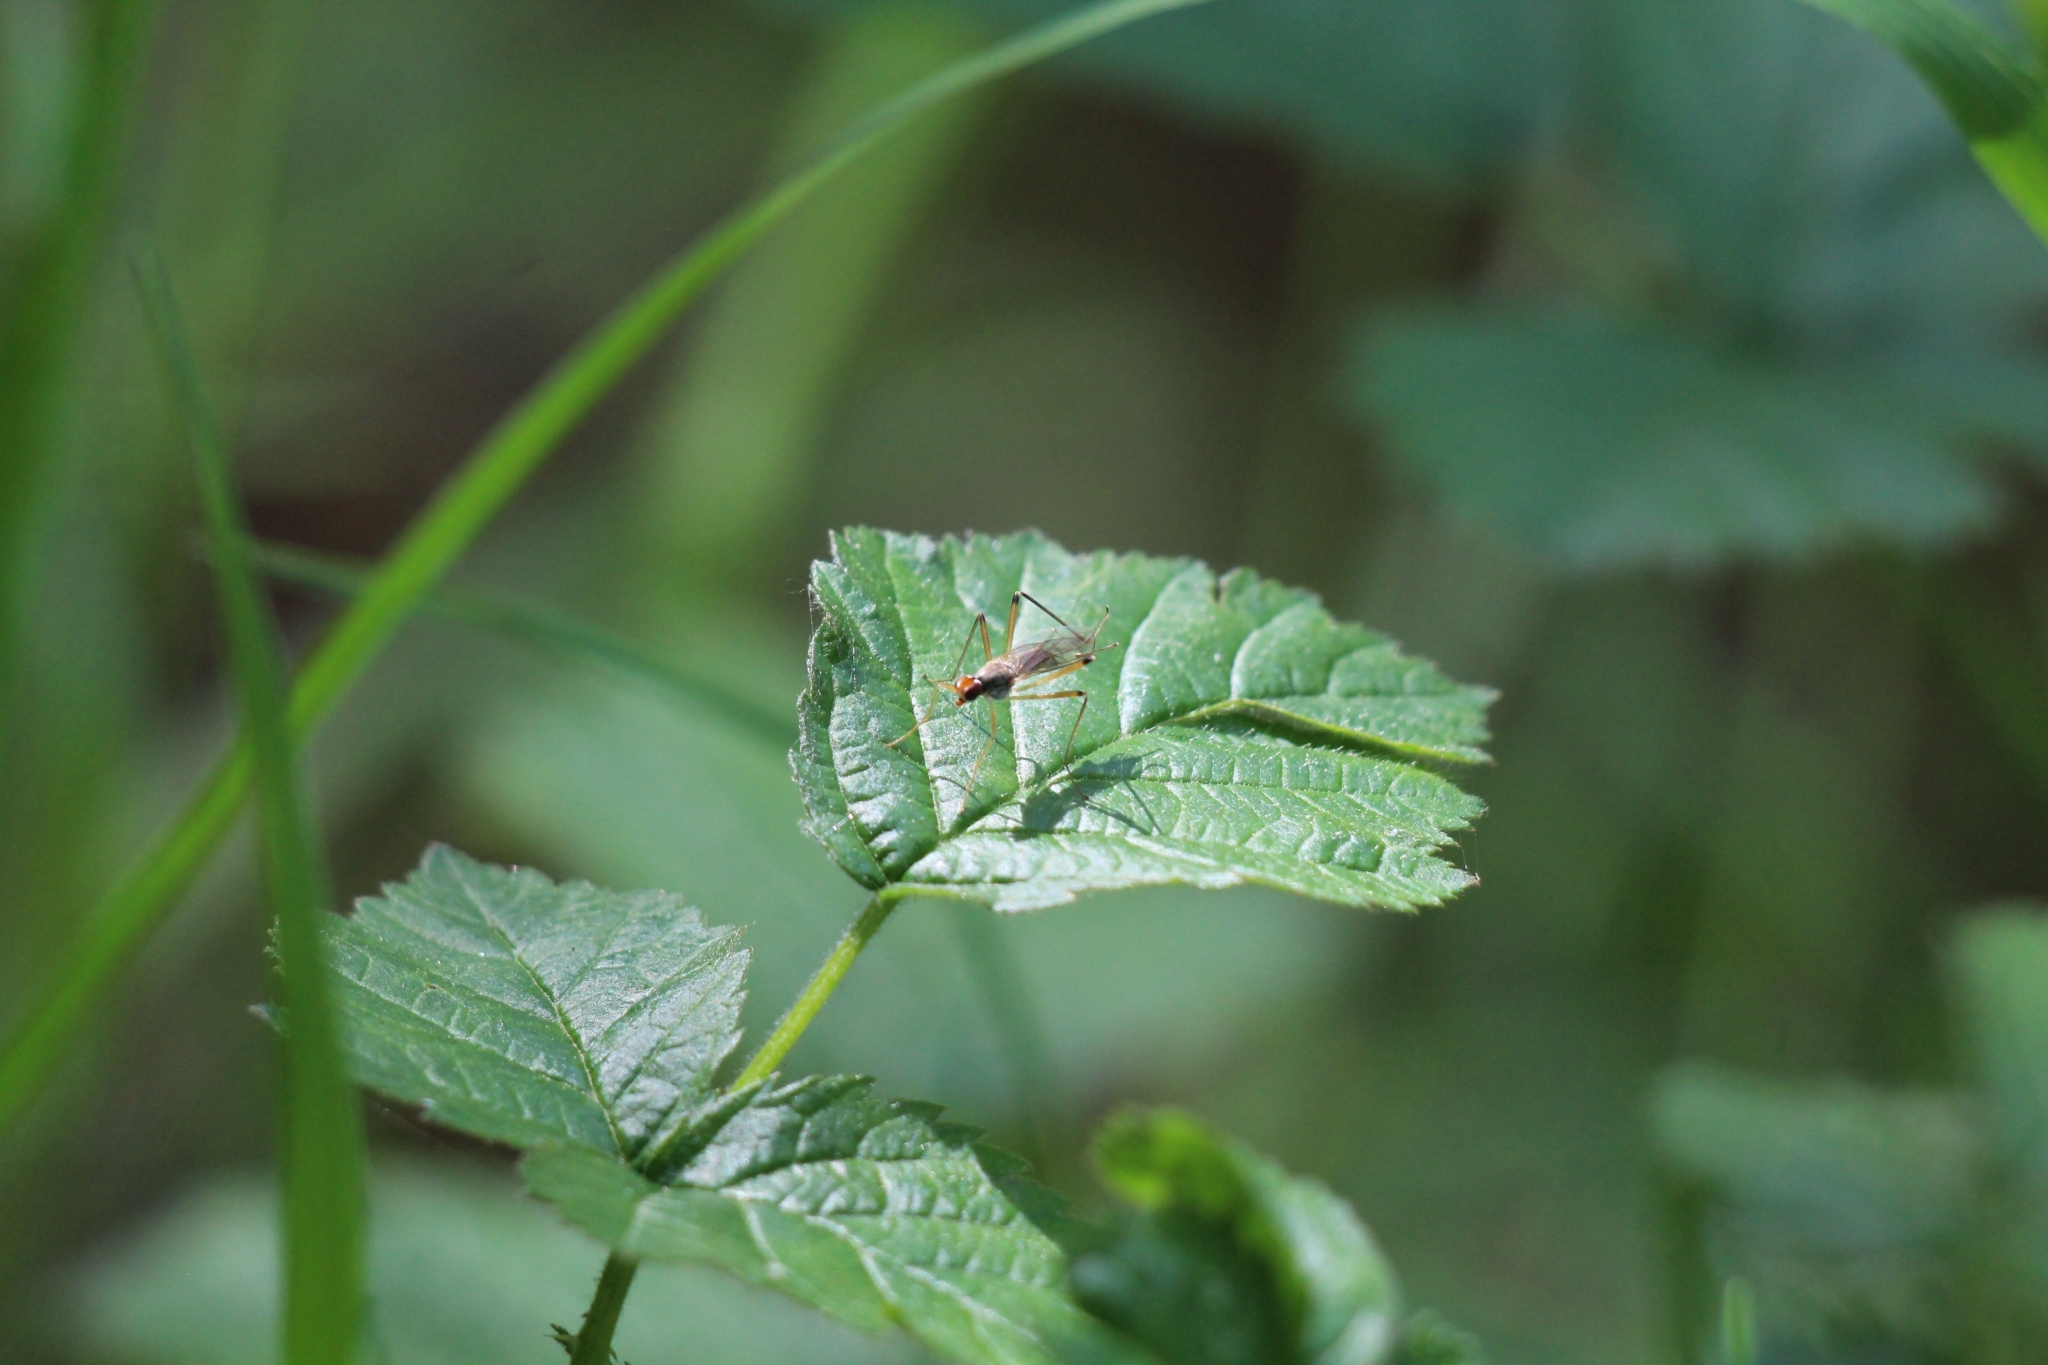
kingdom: Animalia
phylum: Arthropoda
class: Insecta
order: Diptera
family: Micropezidae
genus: Compsobata
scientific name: Compsobata cibaria
